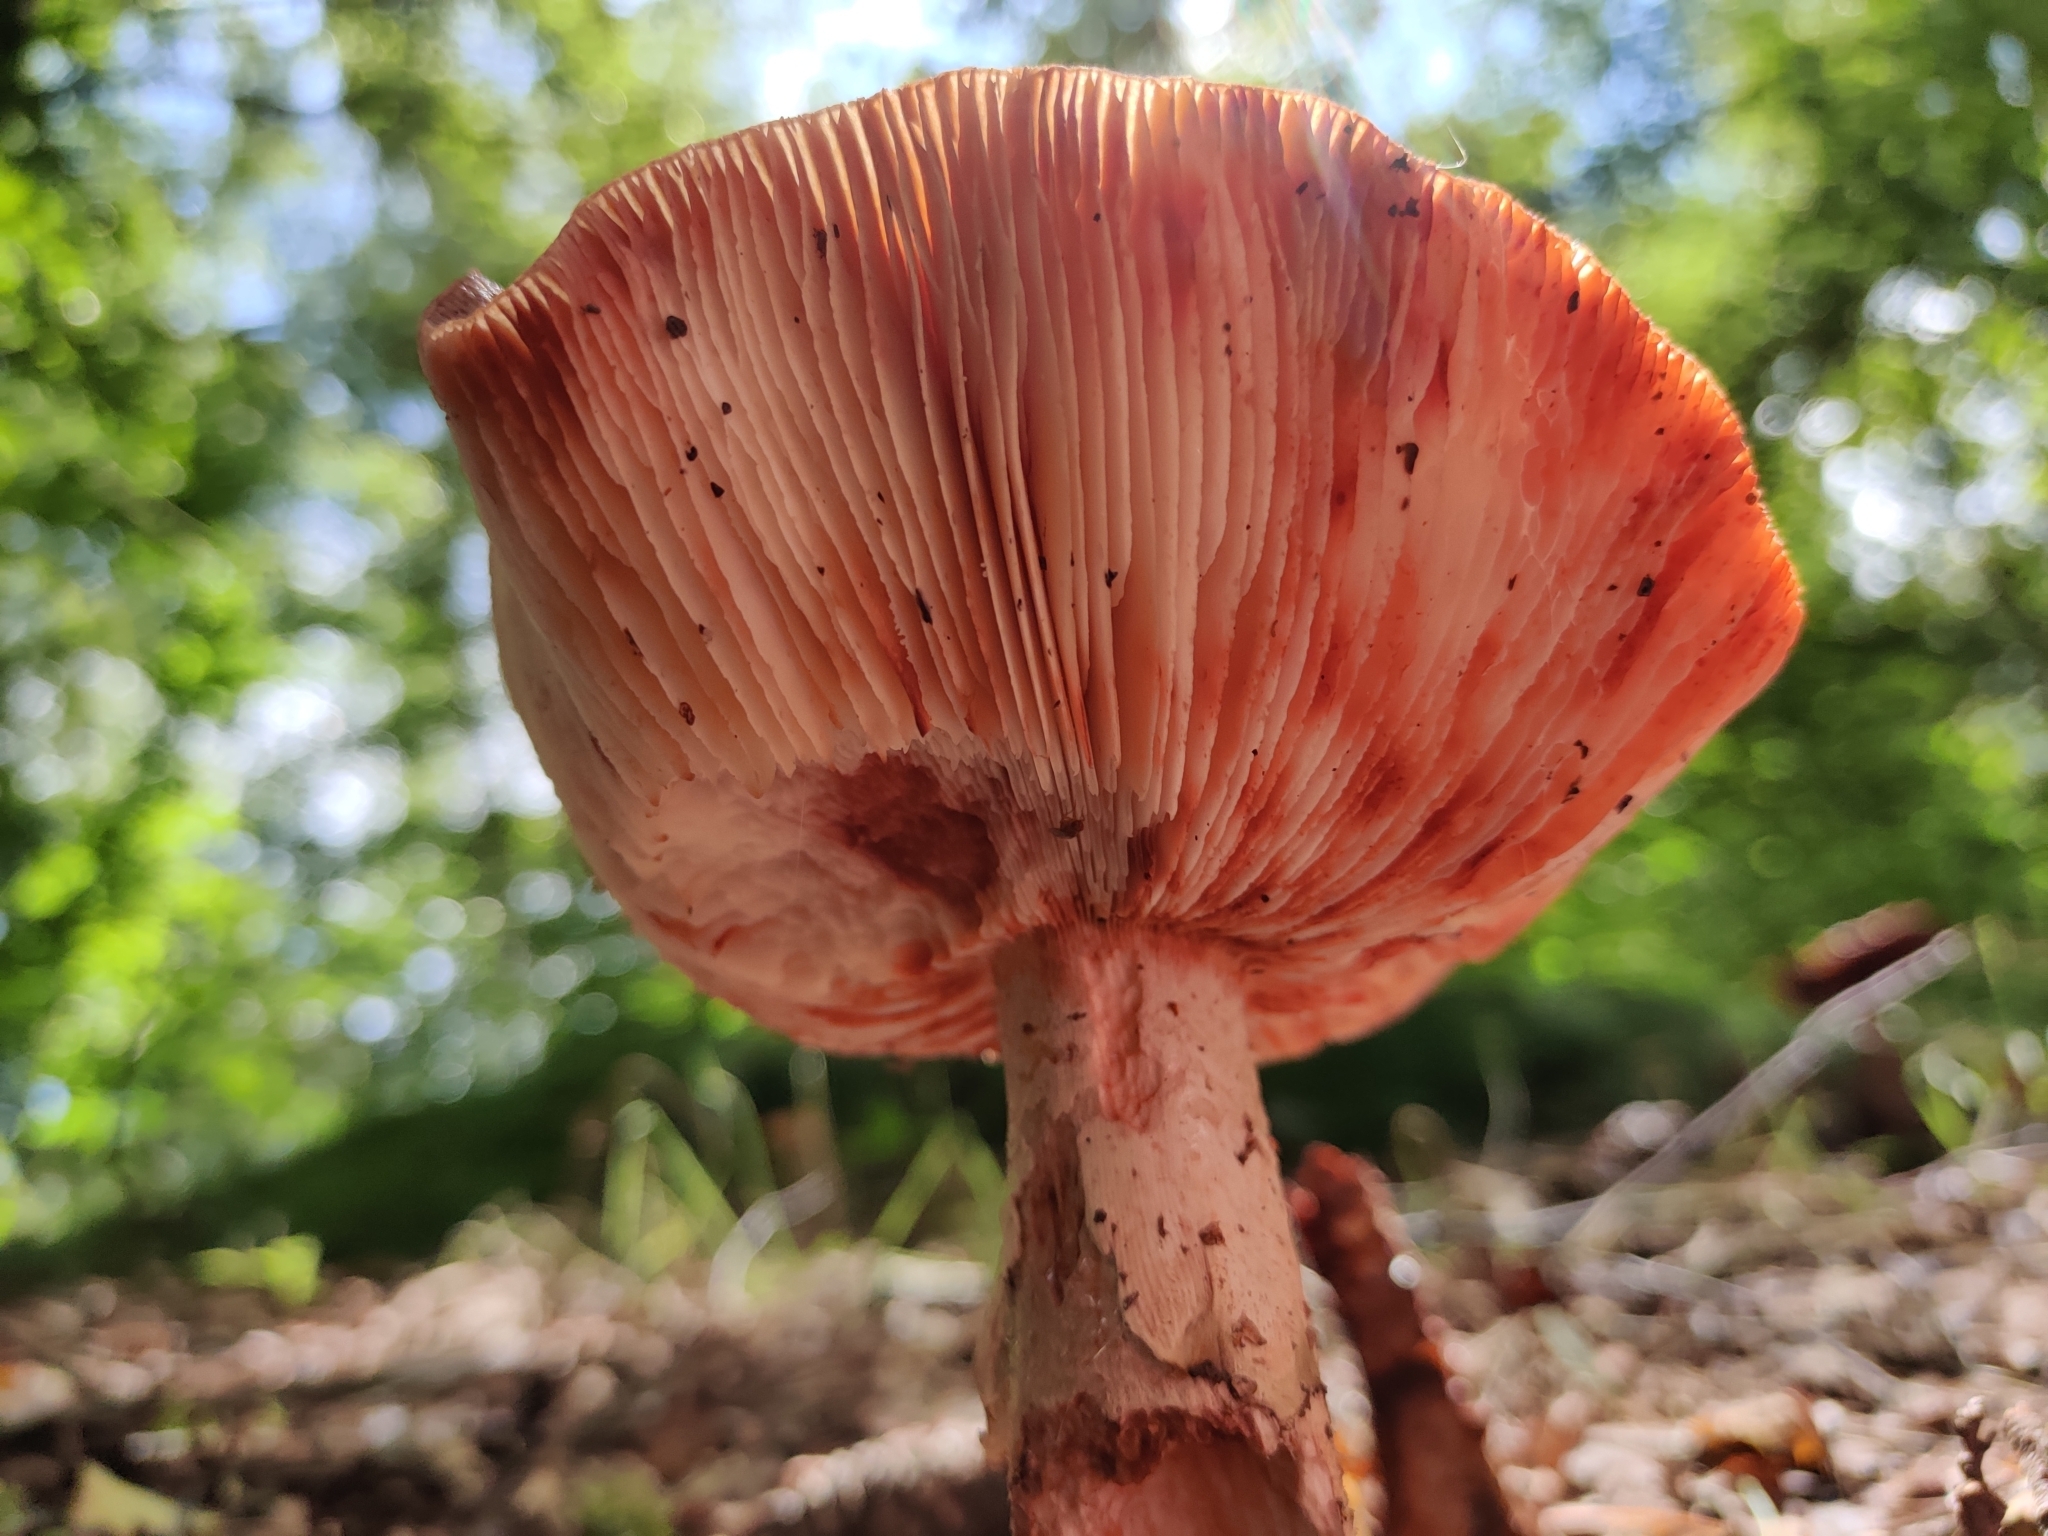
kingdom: Fungi
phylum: Basidiomycota
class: Agaricomycetes
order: Agaricales
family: Amanitaceae
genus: Amanita
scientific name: Amanita rubescens
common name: Blusher
